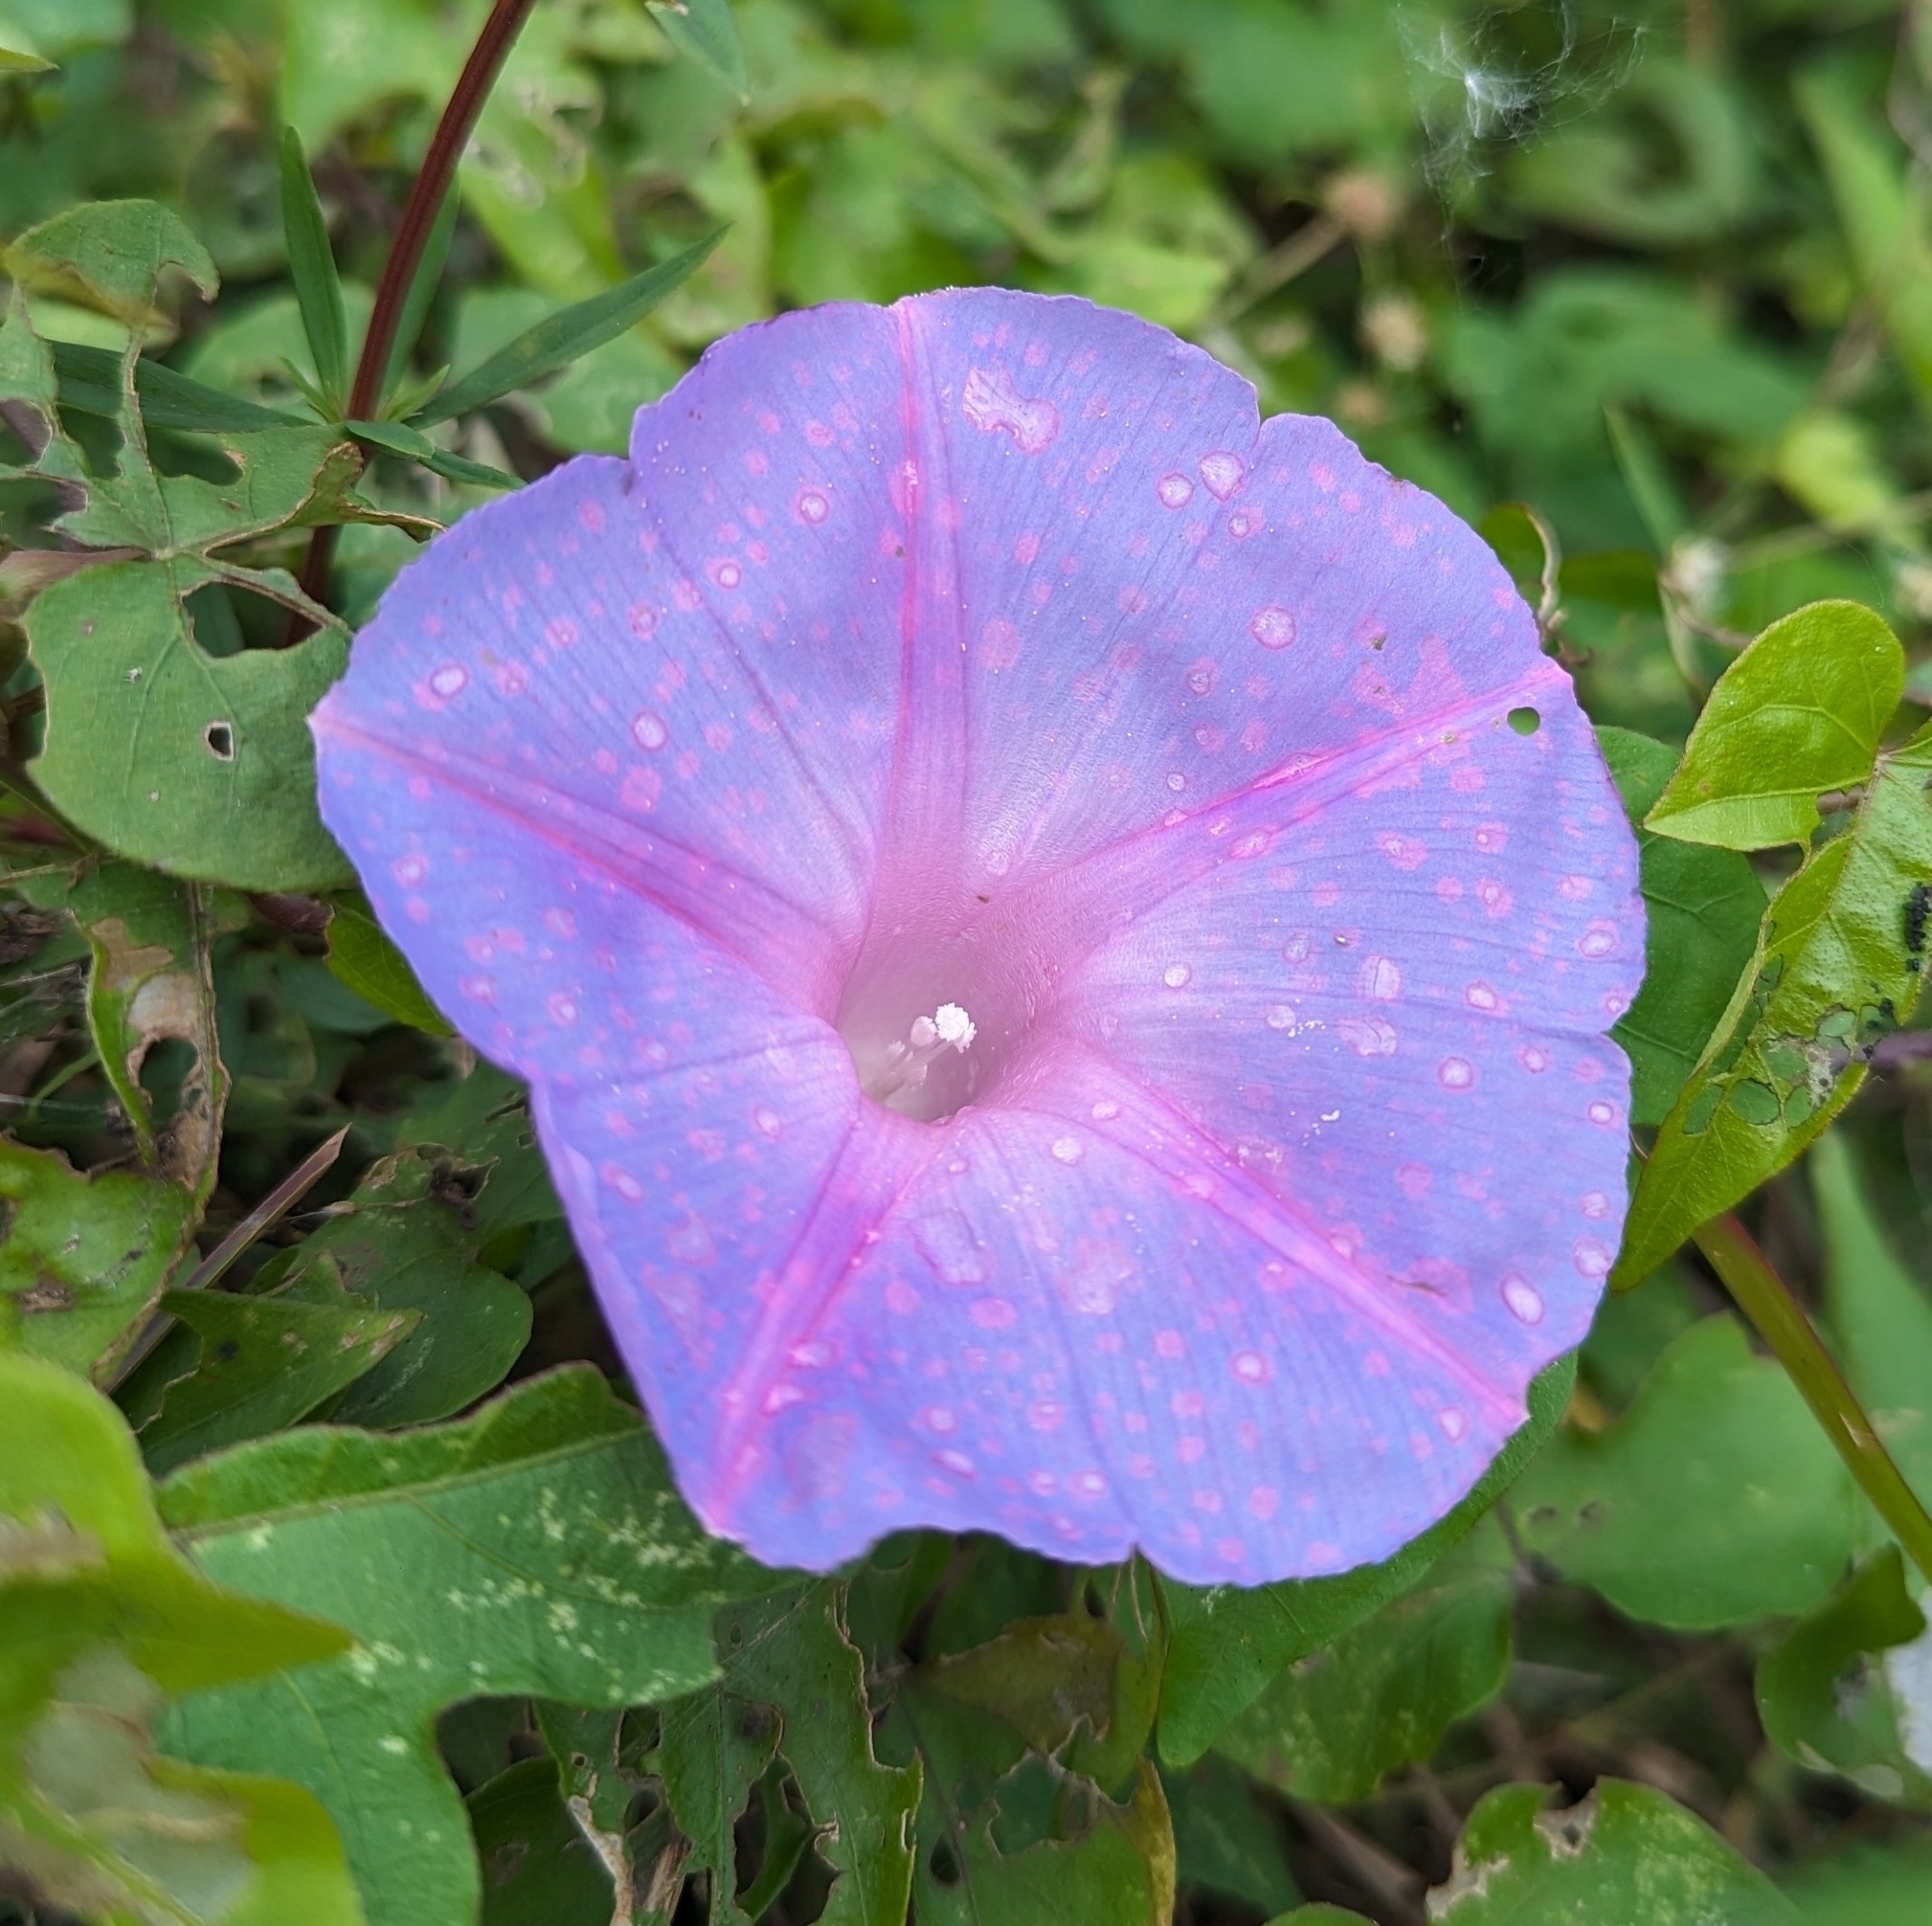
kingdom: Plantae
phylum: Tracheophyta
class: Magnoliopsida
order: Solanales
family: Convolvulaceae
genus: Ipomoea
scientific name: Ipomoea indica
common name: Blue dawnflower
